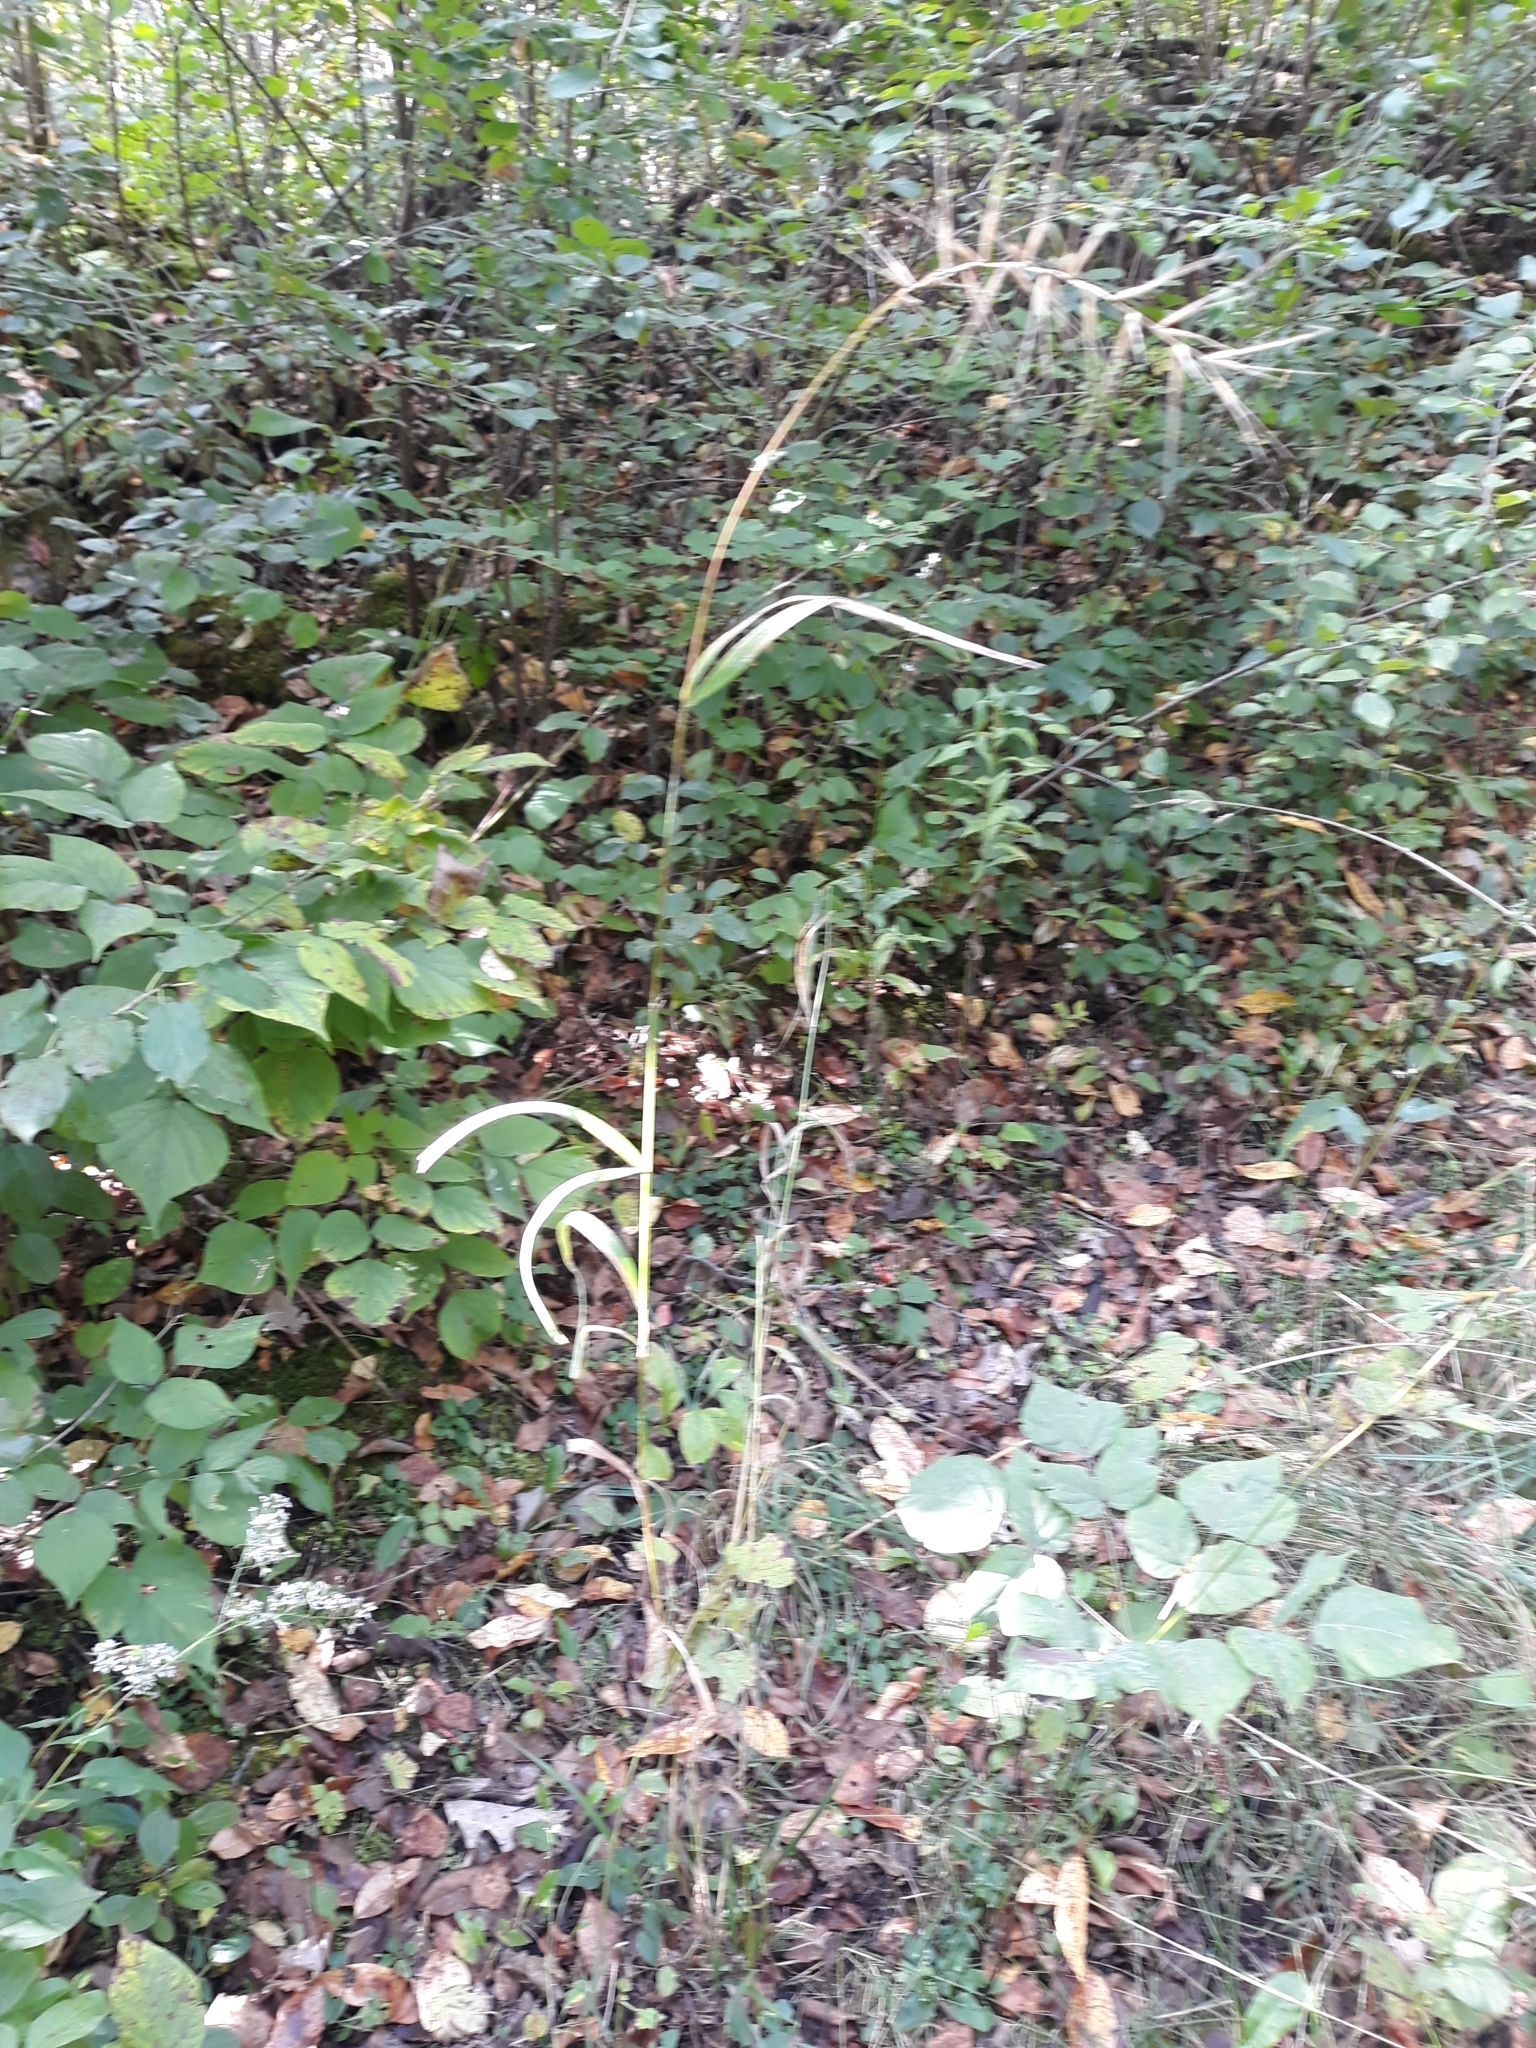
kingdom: Plantae
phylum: Tracheophyta
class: Liliopsida
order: Poales
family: Poaceae
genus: Elymus
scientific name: Elymus hystrix
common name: Bottlebrush grass
